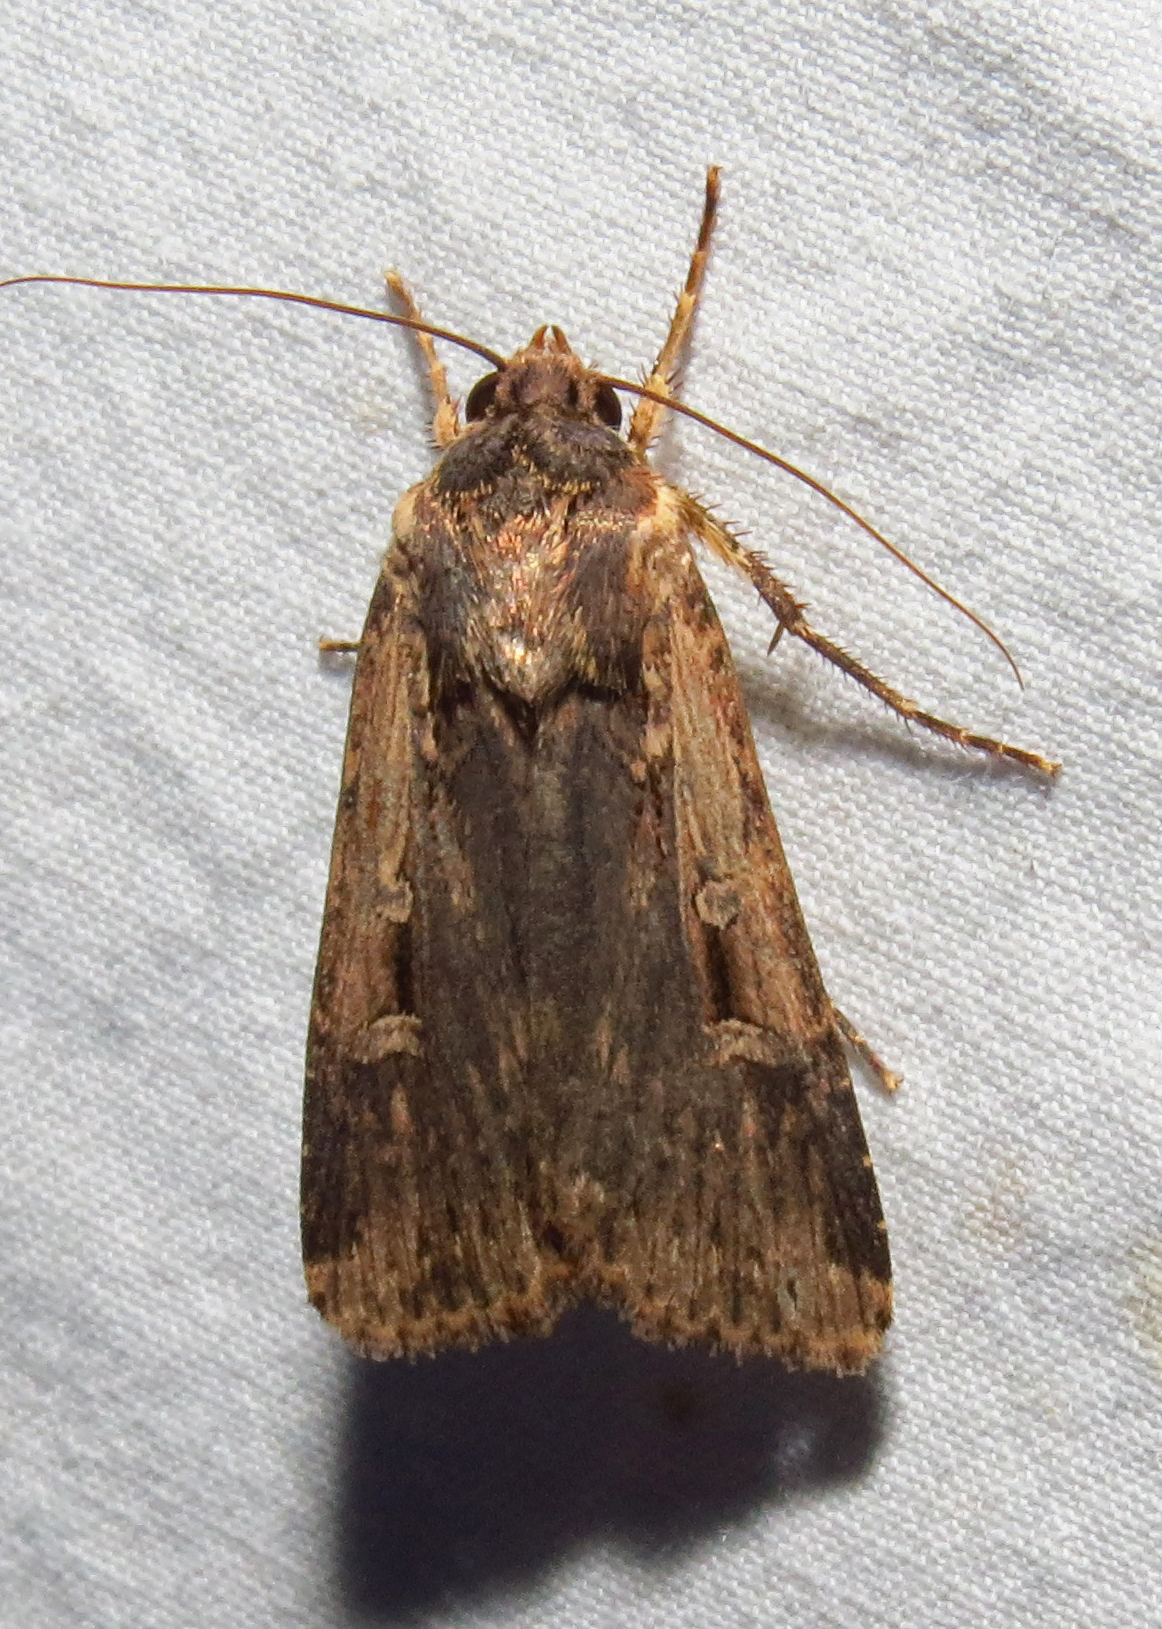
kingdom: Animalia
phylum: Arthropoda
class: Insecta
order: Lepidoptera
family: Noctuidae
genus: Feltia
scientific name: Feltia subterranea
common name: Granulate cutworm
